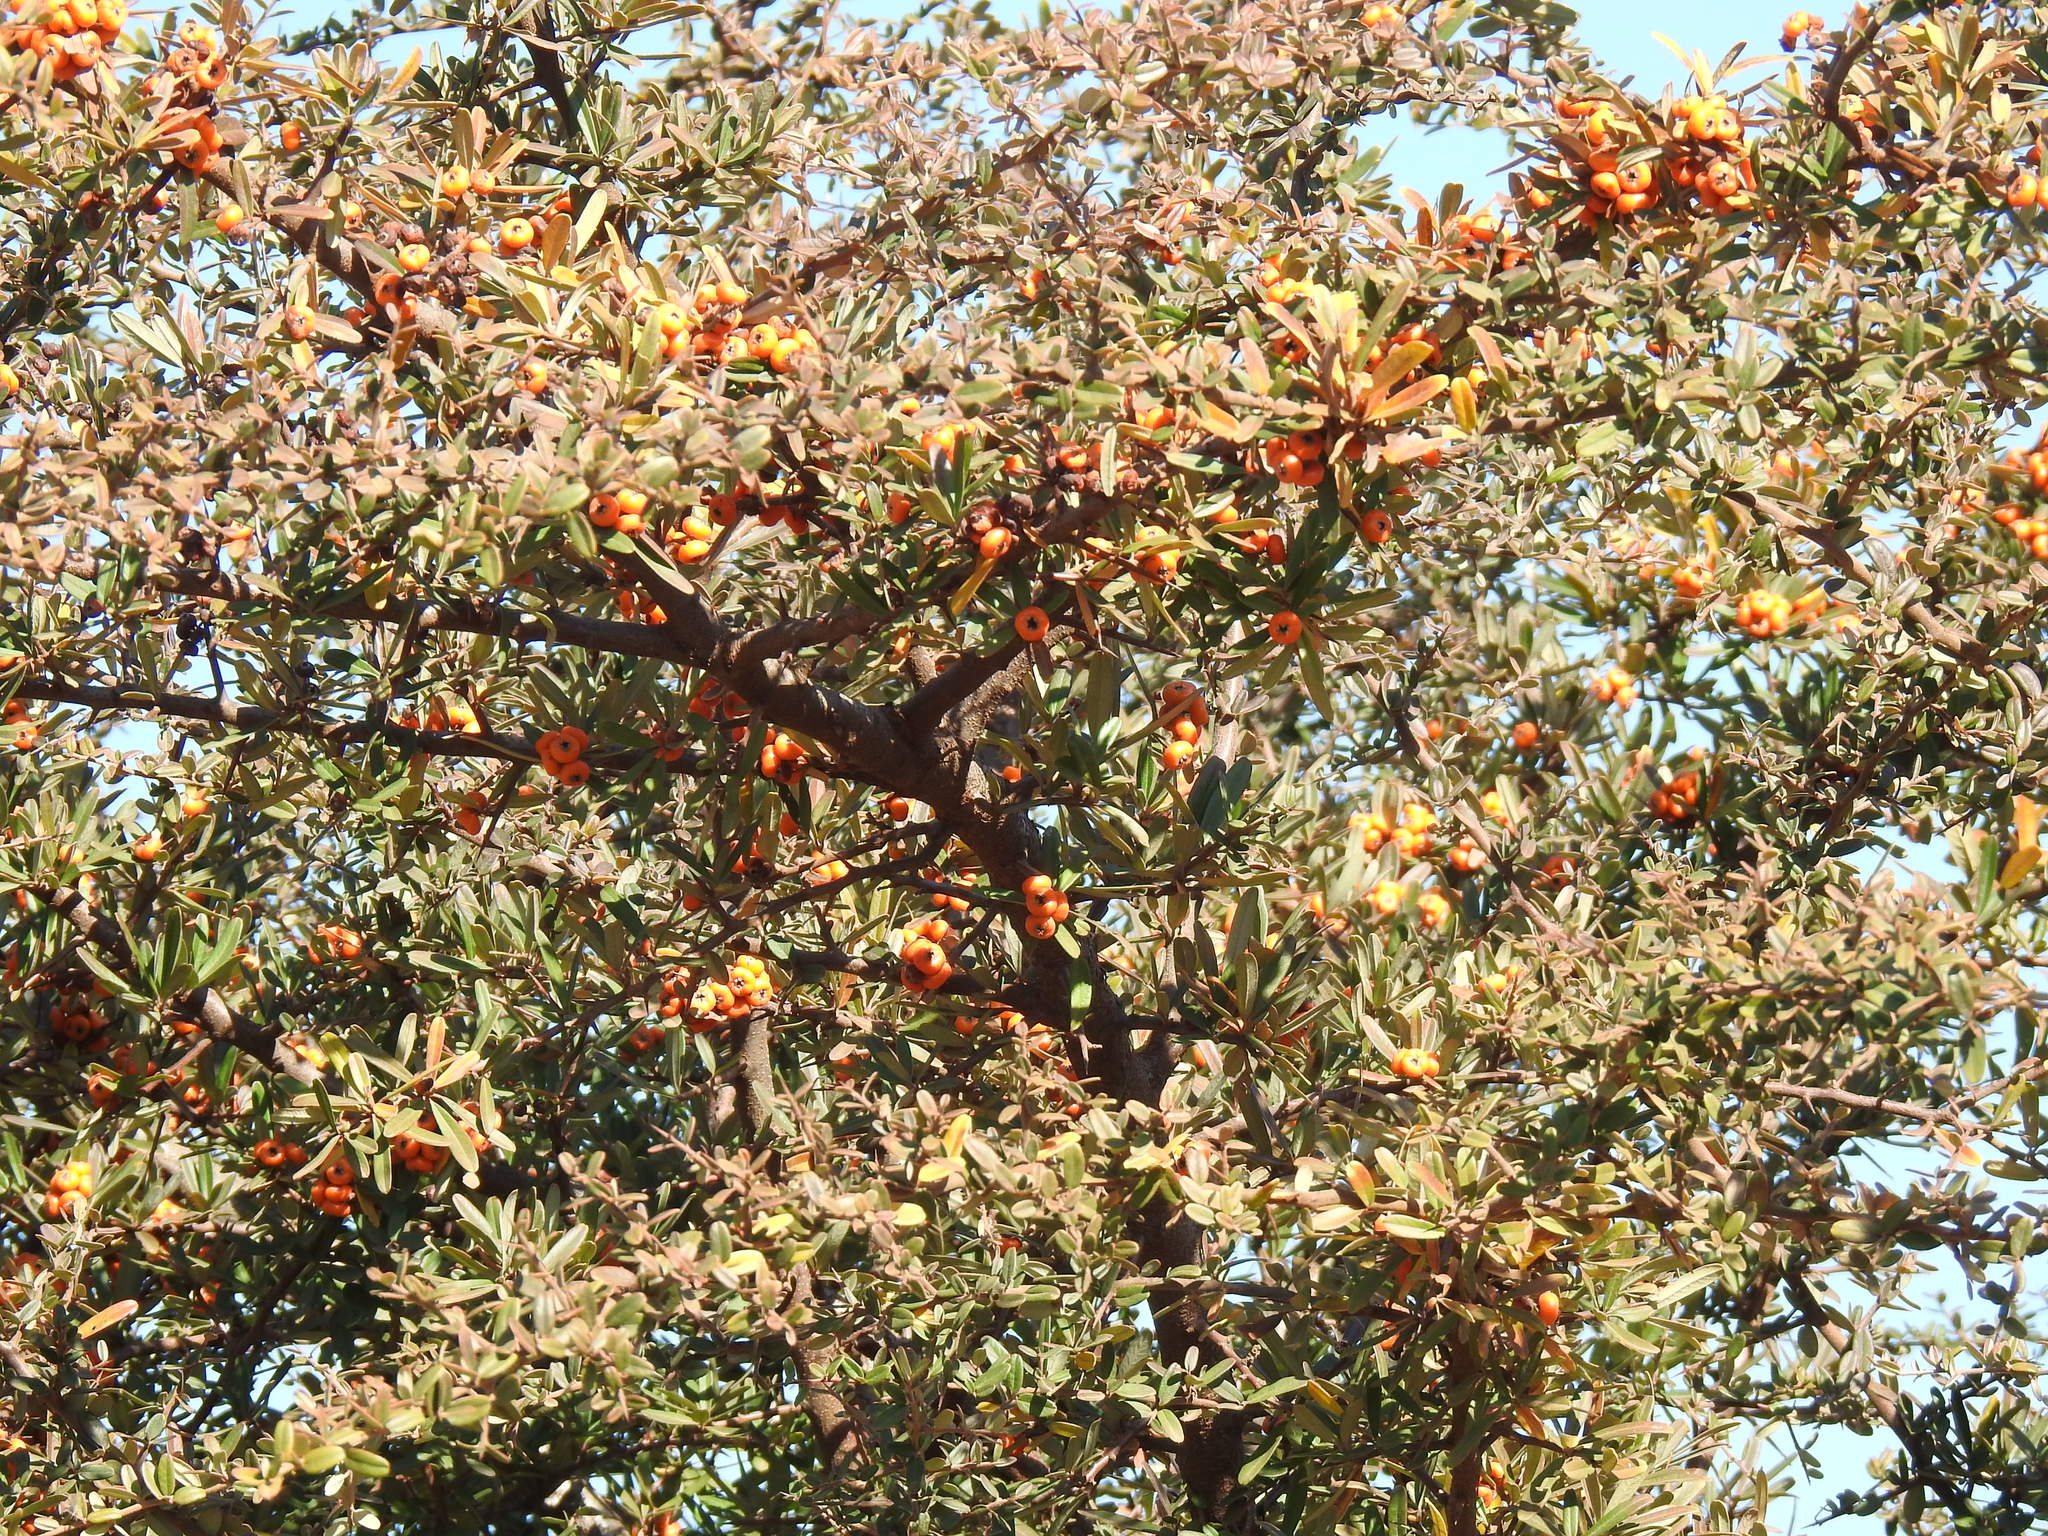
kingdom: Plantae
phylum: Tracheophyta
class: Magnoliopsida
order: Rosales
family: Rosaceae
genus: Pyracantha
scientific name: Pyracantha angustifolia
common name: Narrowleaf firethorn
